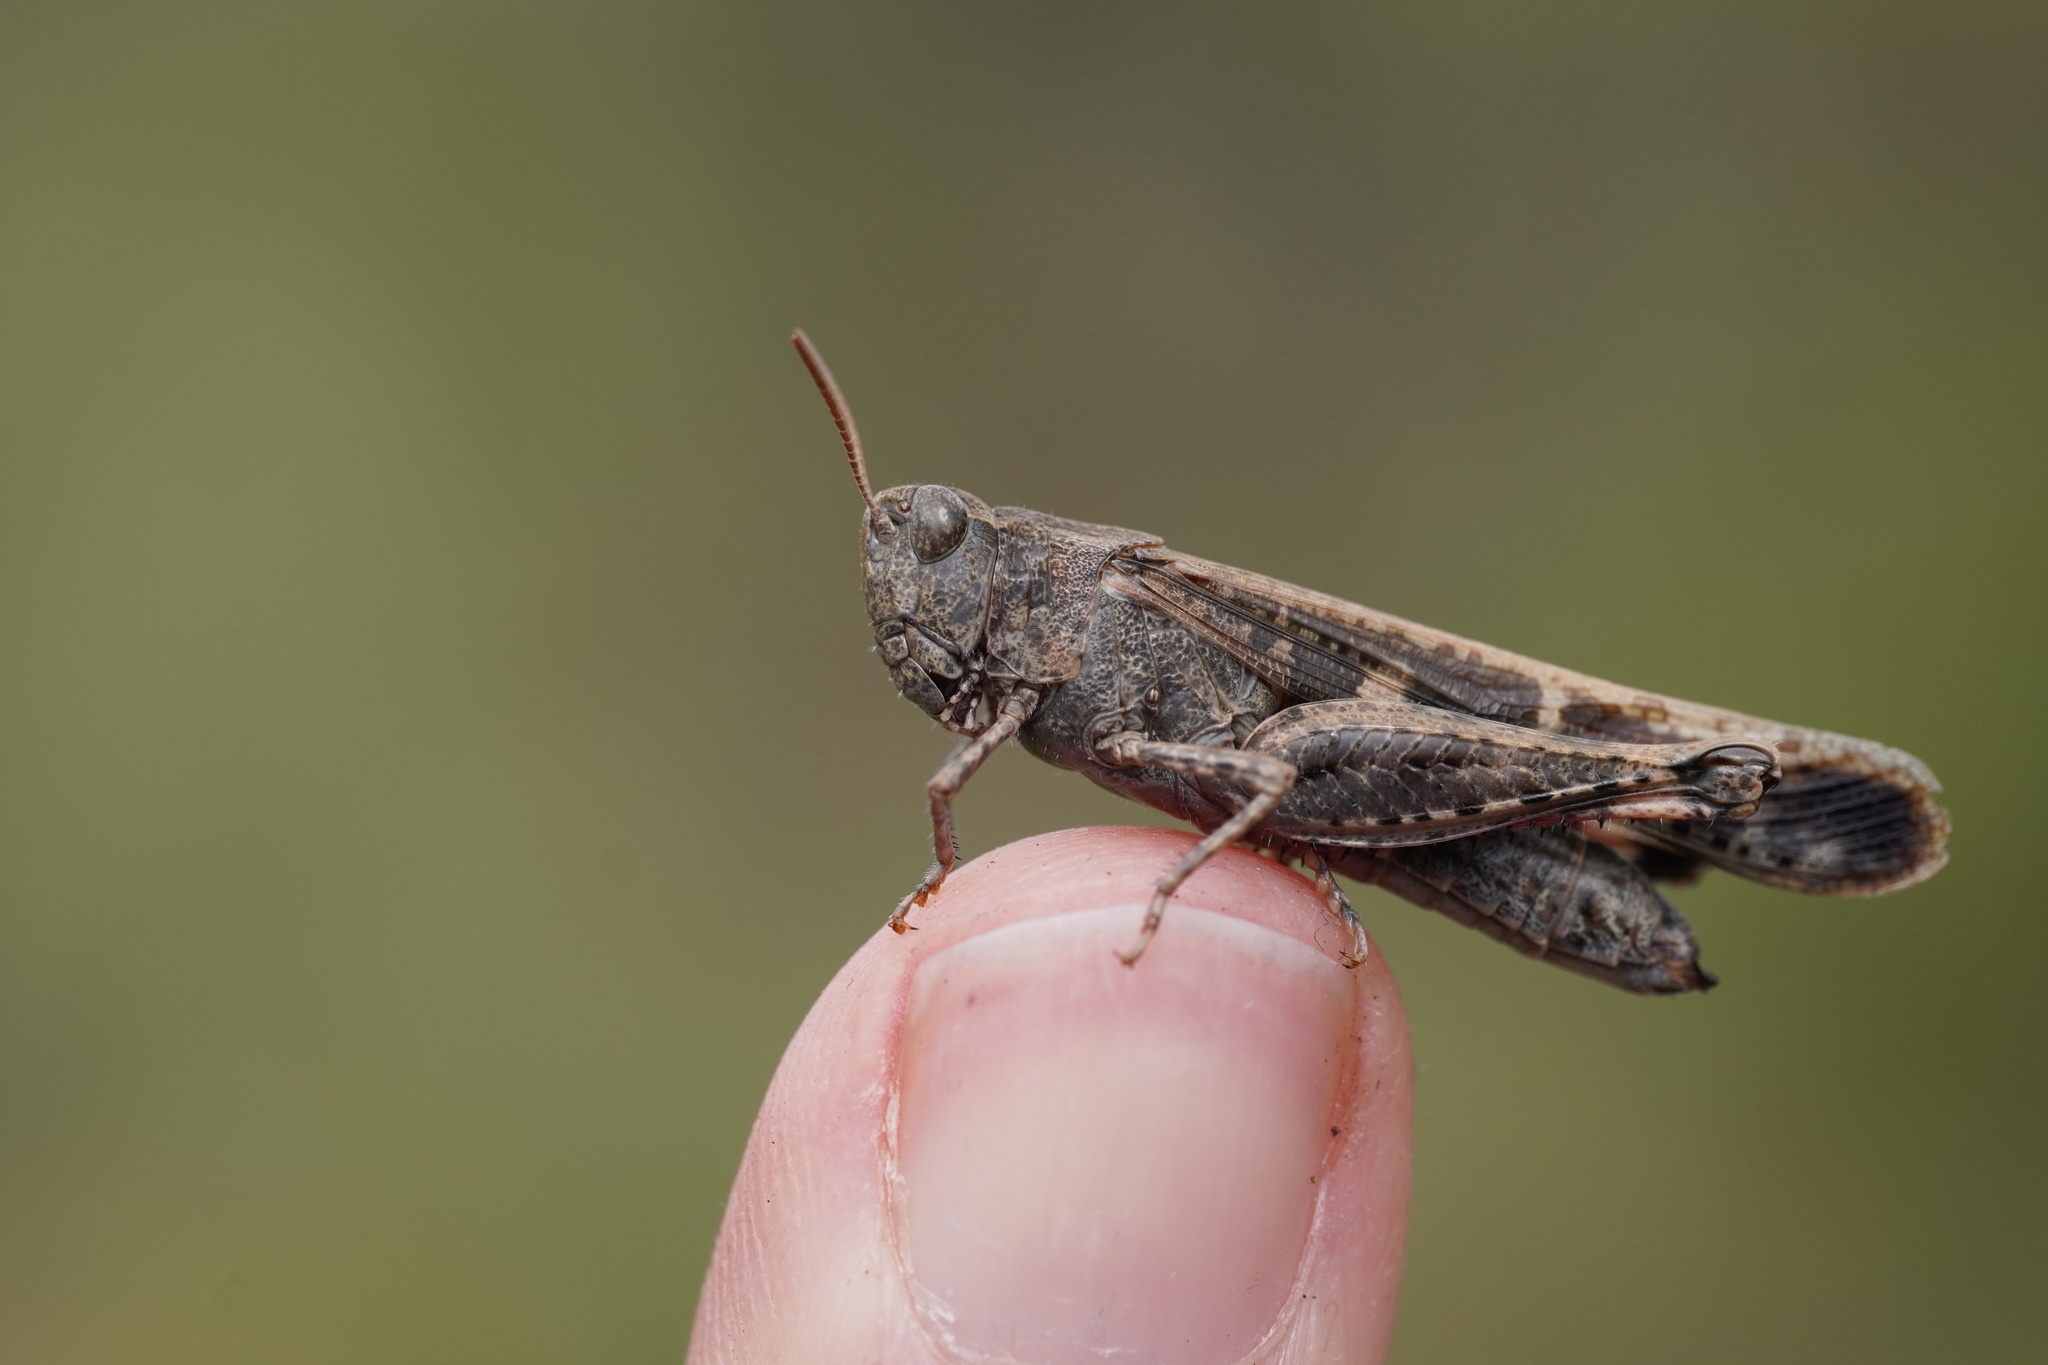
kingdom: Animalia
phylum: Arthropoda
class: Insecta
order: Orthoptera
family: Acrididae
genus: Aiolopus
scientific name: Aiolopus strepens
